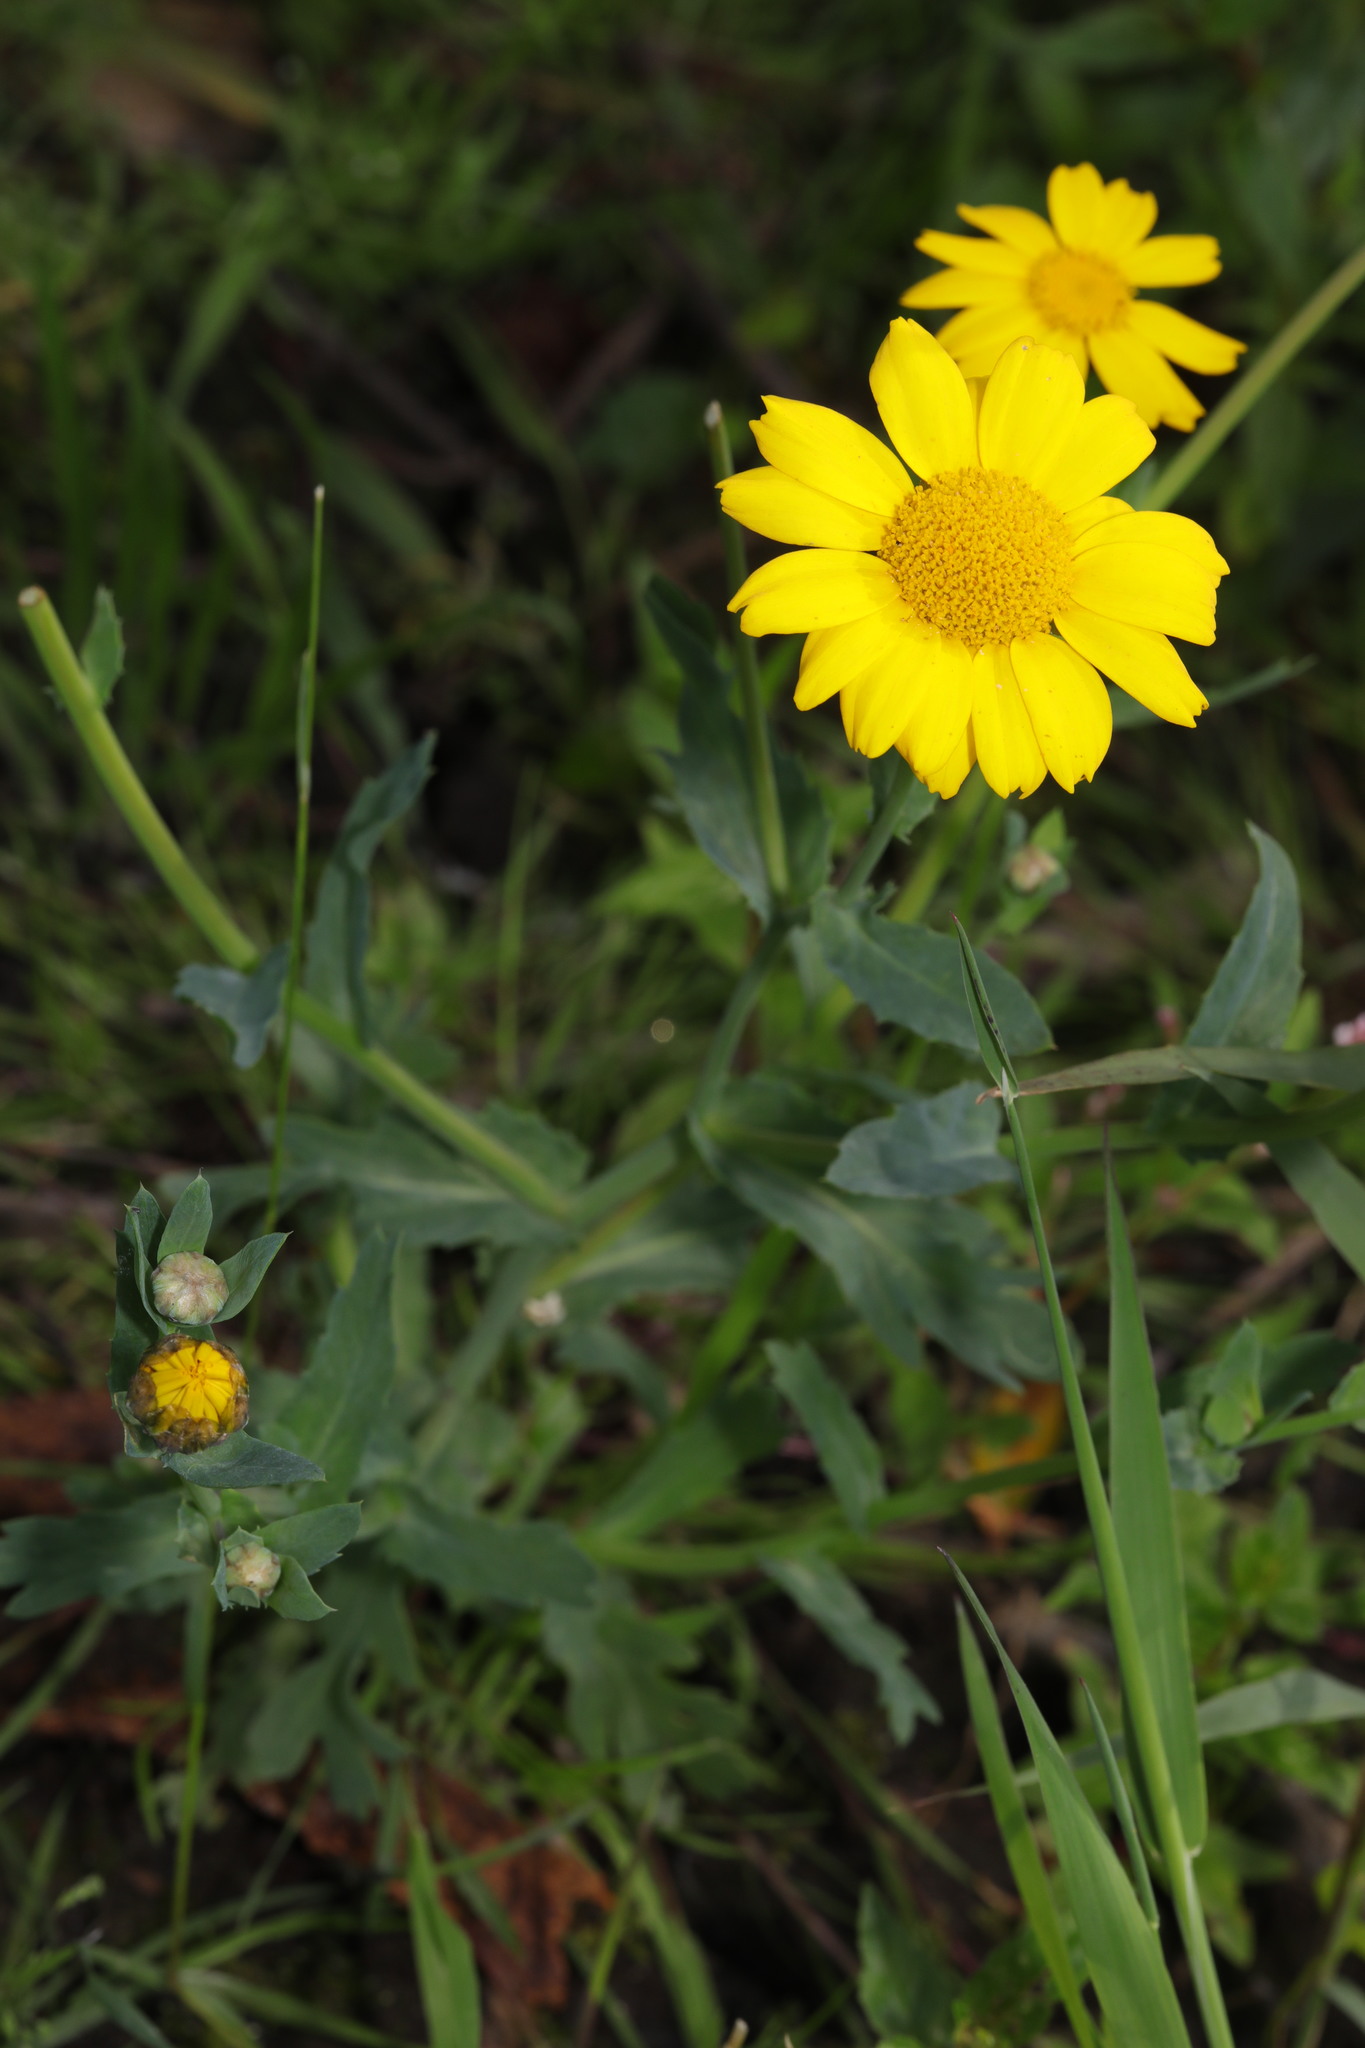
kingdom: Plantae
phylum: Tracheophyta
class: Magnoliopsida
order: Asterales
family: Asteraceae
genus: Glebionis
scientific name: Glebionis segetum
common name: Corndaisy
